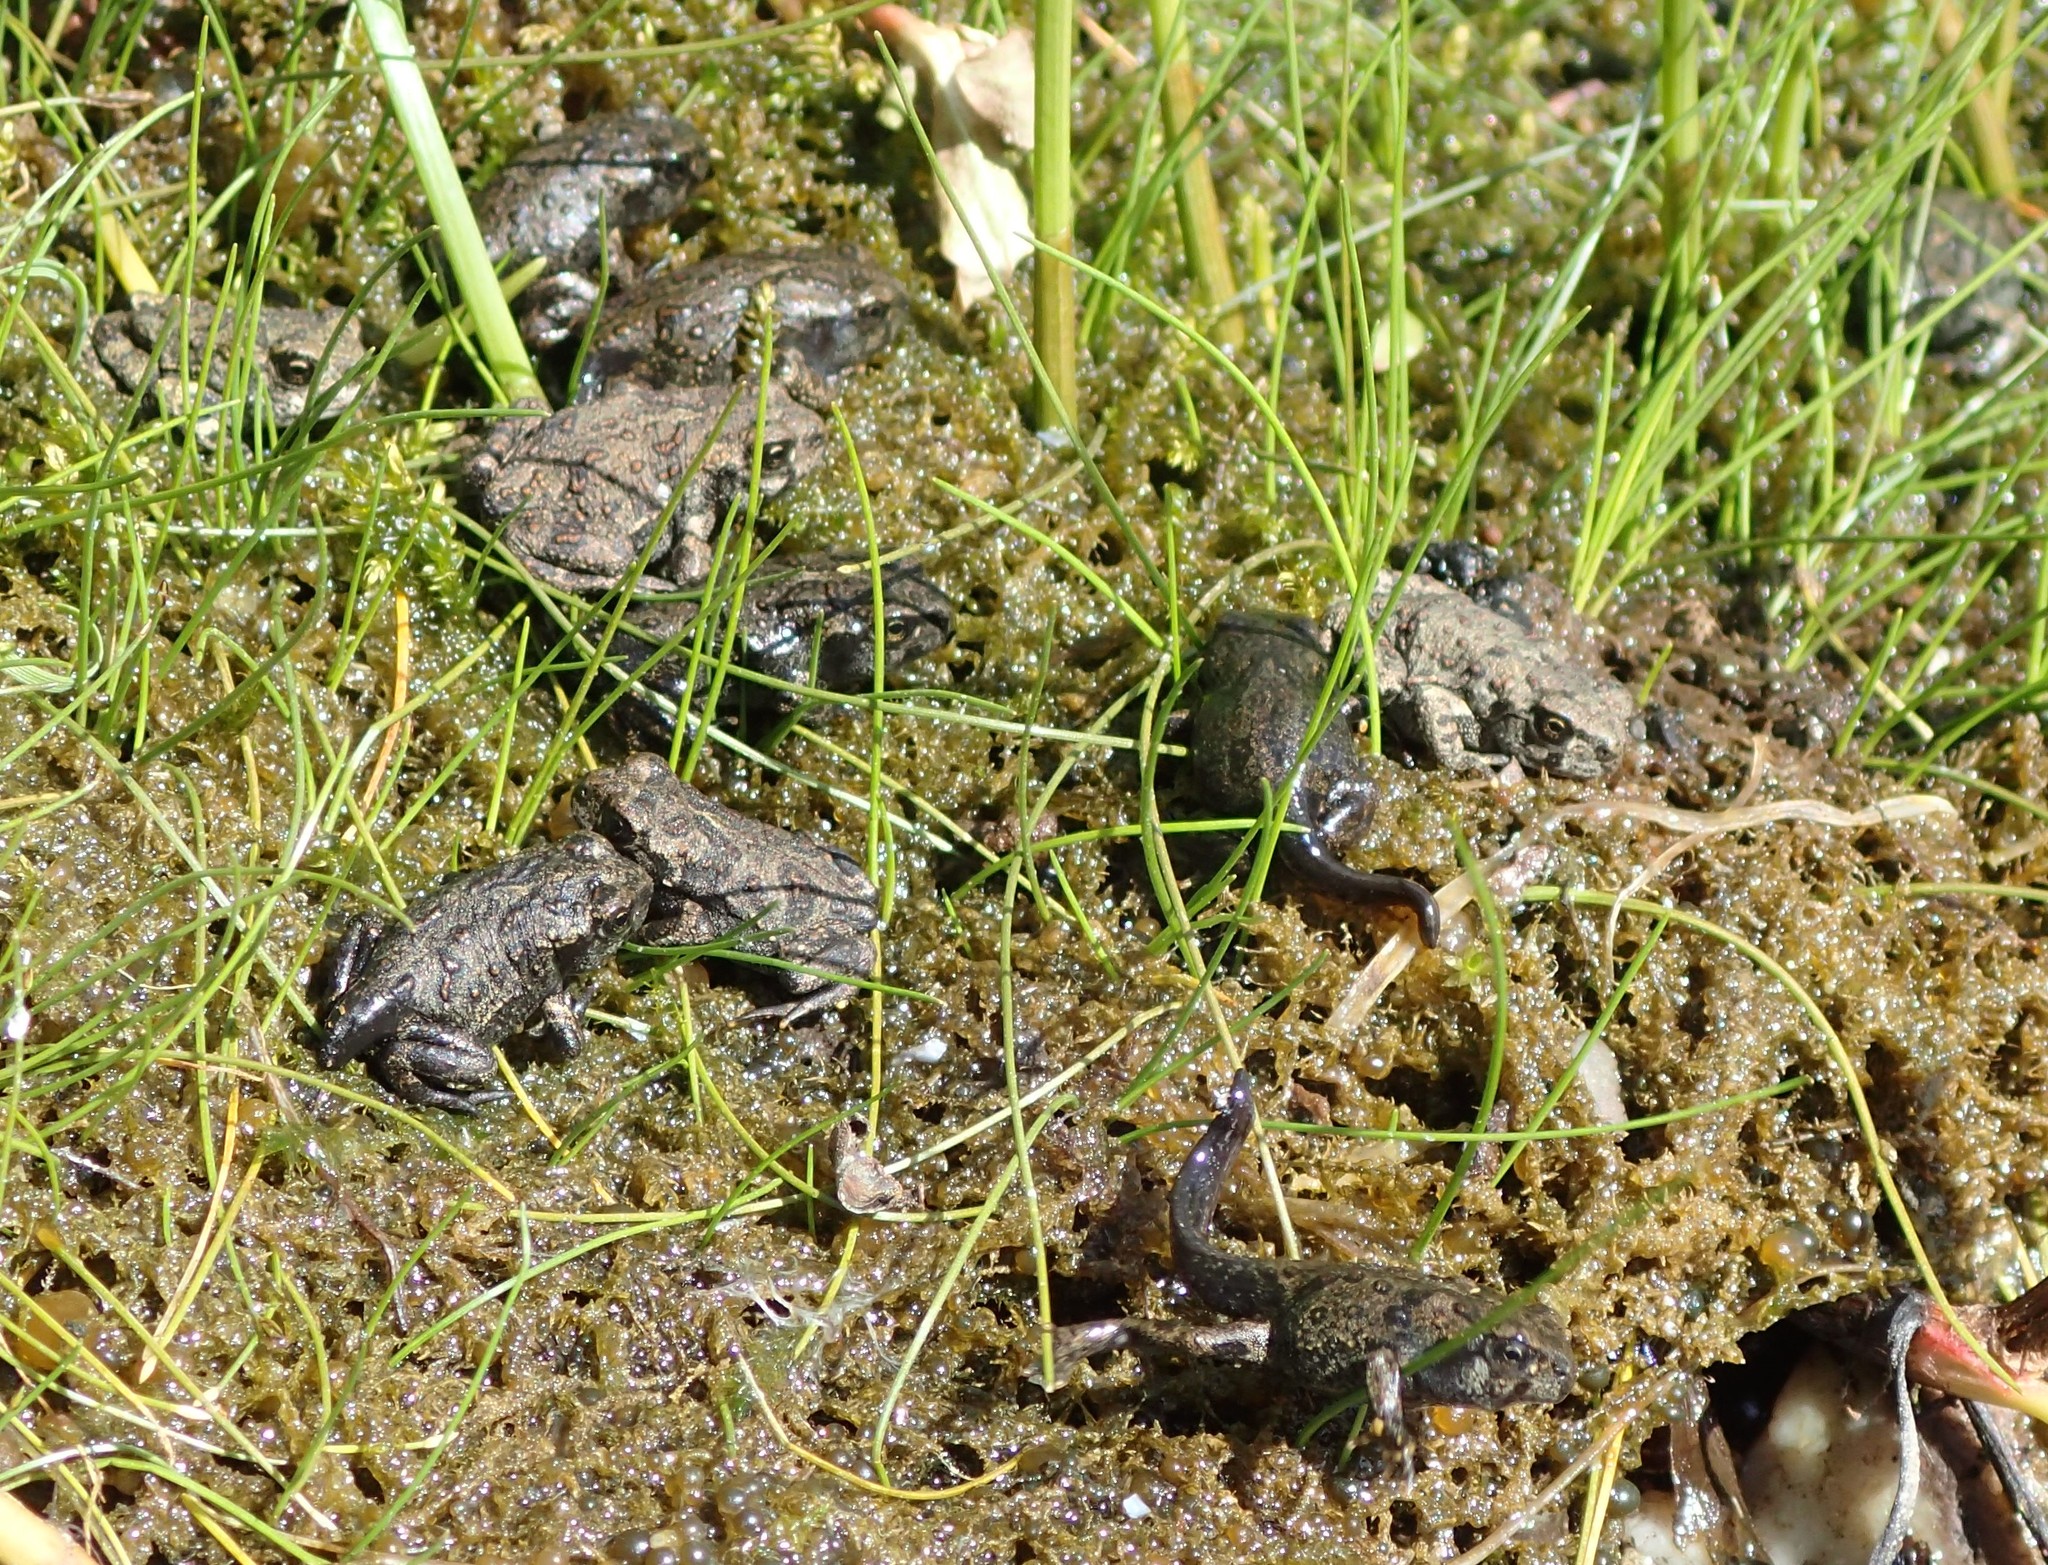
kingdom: Animalia
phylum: Chordata
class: Amphibia
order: Anura
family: Bufonidae
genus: Anaxyrus
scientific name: Anaxyrus boreas
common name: Western toad
